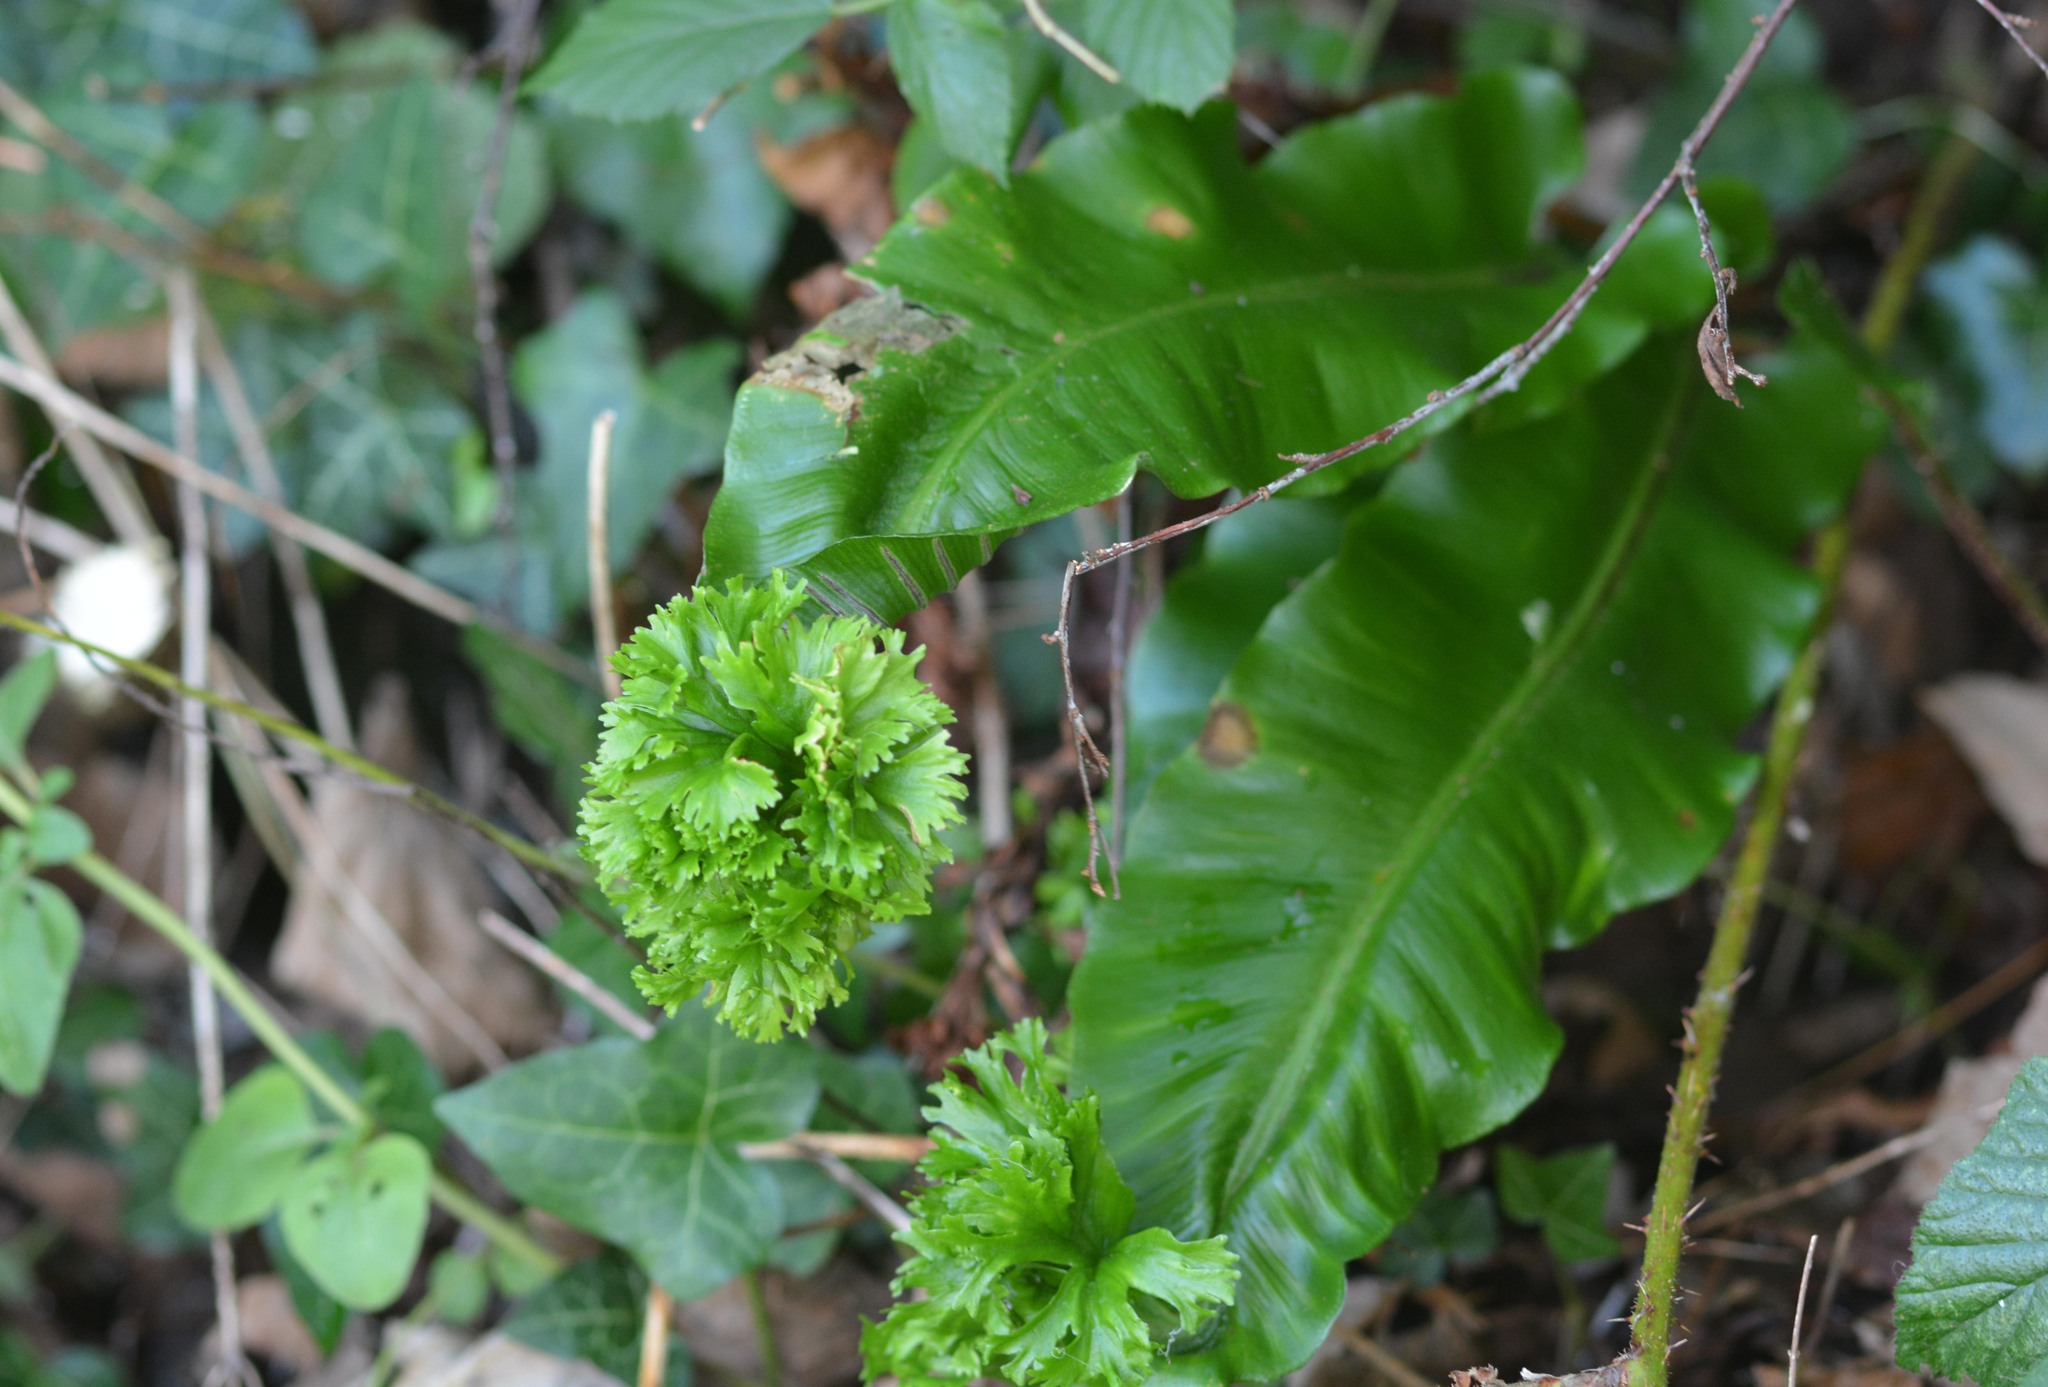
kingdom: Plantae
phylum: Tracheophyta
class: Polypodiopsida
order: Polypodiales
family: Aspleniaceae
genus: Asplenium
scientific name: Asplenium scolopendrium
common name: Hart's-tongue fern
